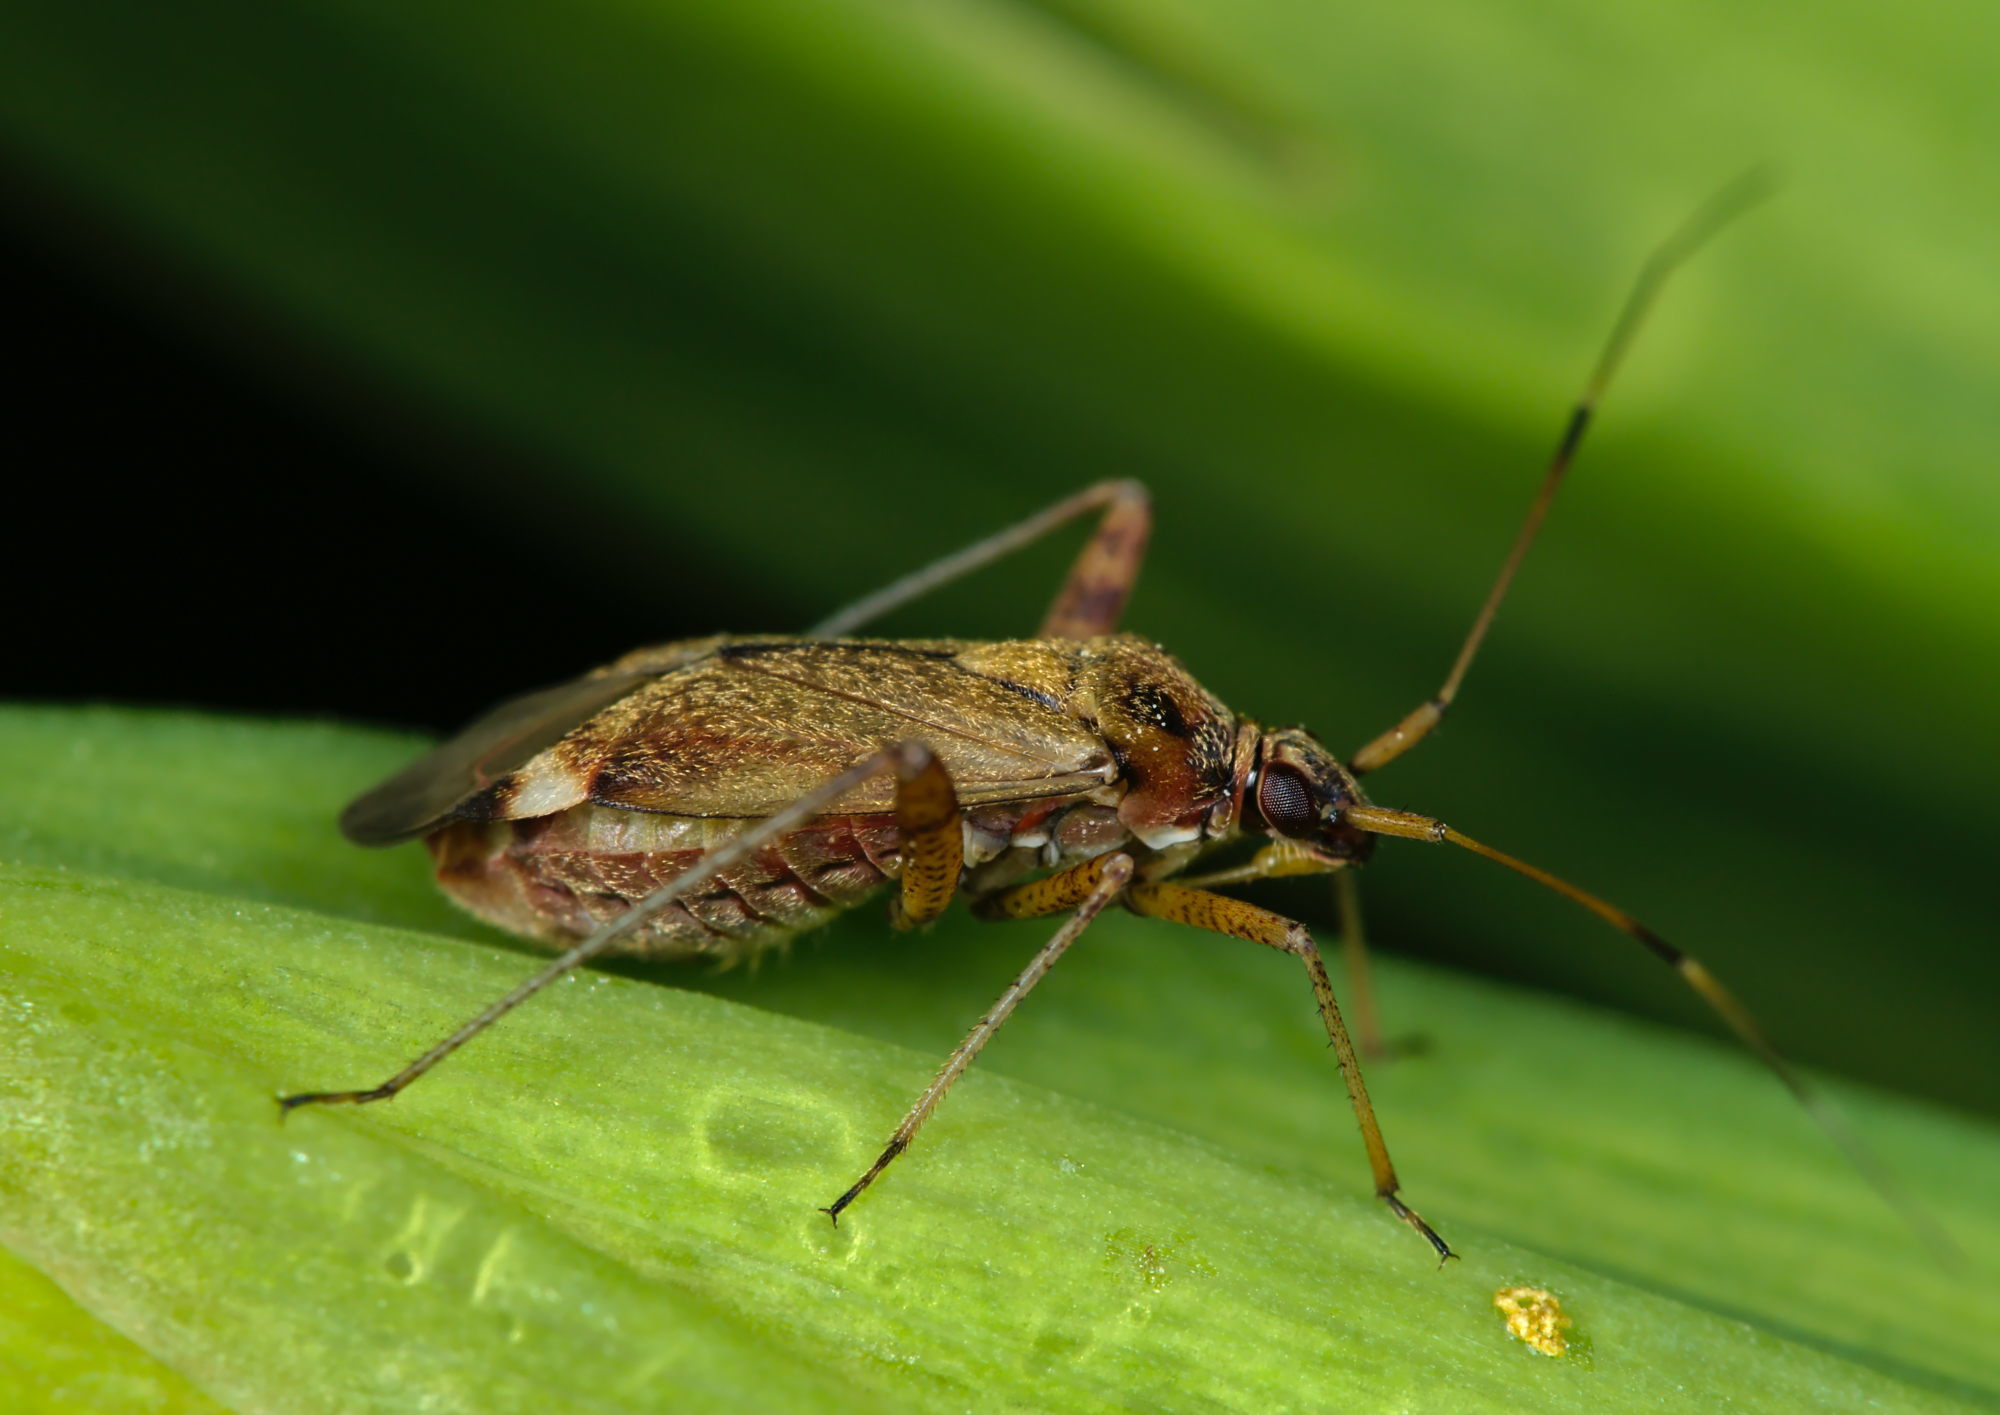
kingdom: Animalia
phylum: Arthropoda
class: Insecta
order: Hemiptera
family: Miridae
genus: Closterotomus
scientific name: Closterotomus fulvomaculatus
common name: Spotted plant bug
